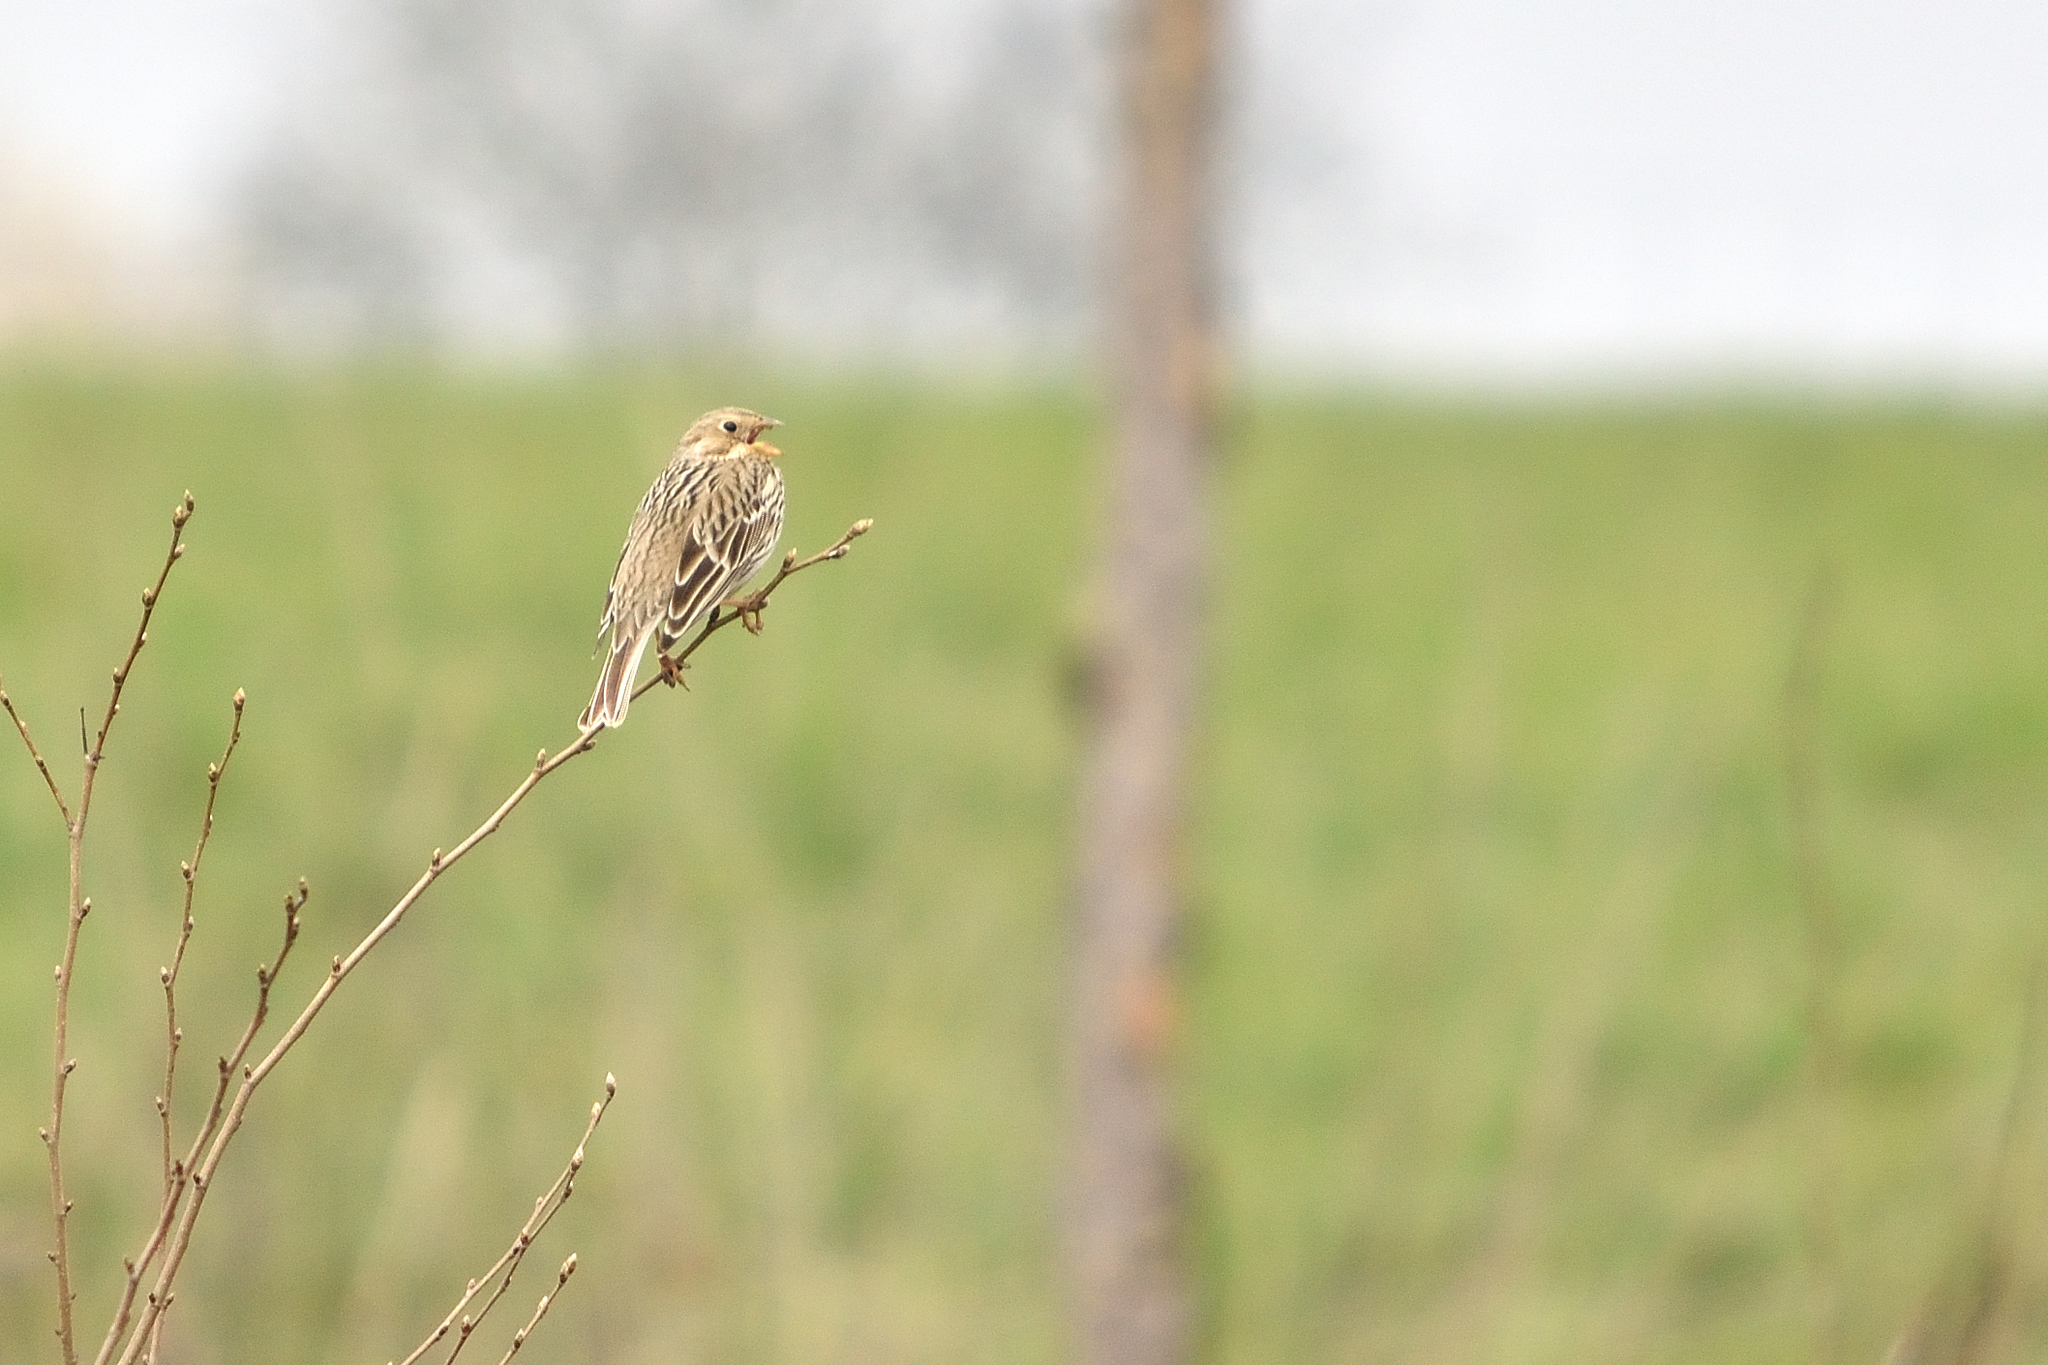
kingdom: Animalia
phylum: Chordata
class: Aves
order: Passeriformes
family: Emberizidae
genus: Emberiza
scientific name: Emberiza calandra
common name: Corn bunting
